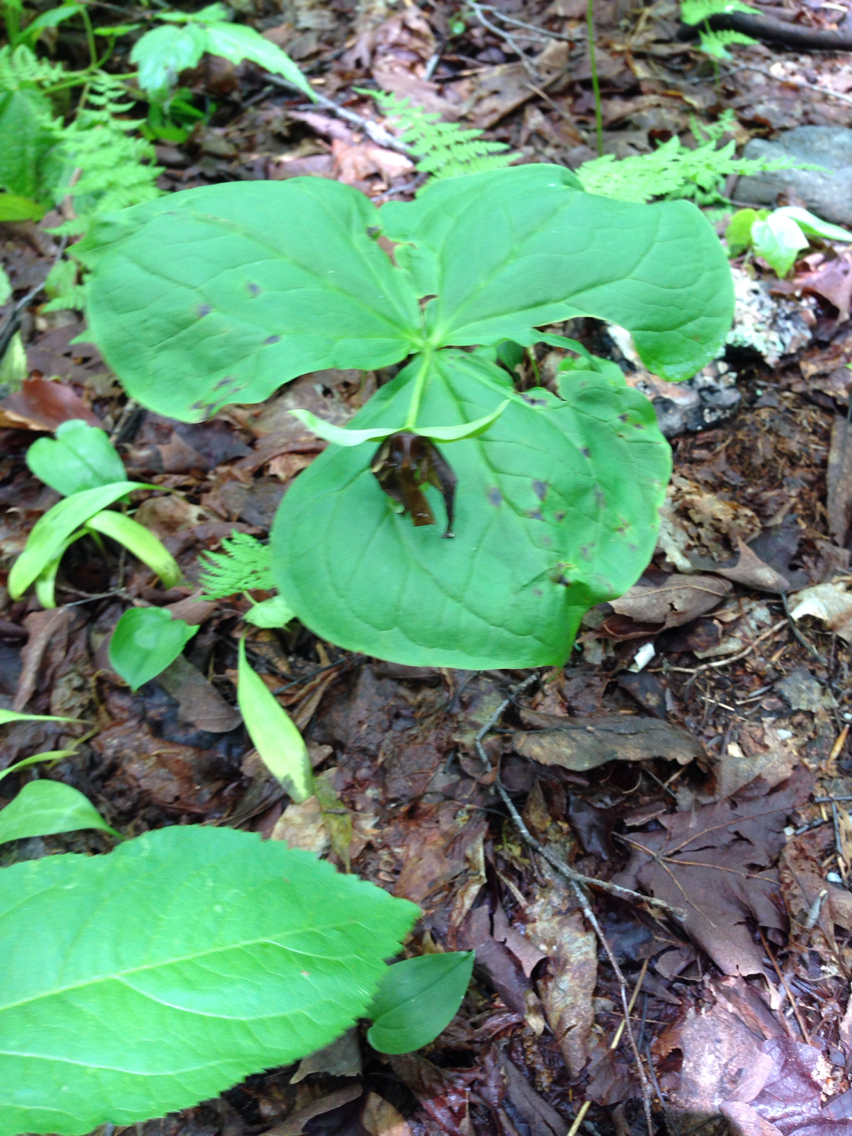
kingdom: Plantae
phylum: Tracheophyta
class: Liliopsida
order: Liliales
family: Melanthiaceae
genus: Trillium
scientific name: Trillium erectum
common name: Purple trillium
